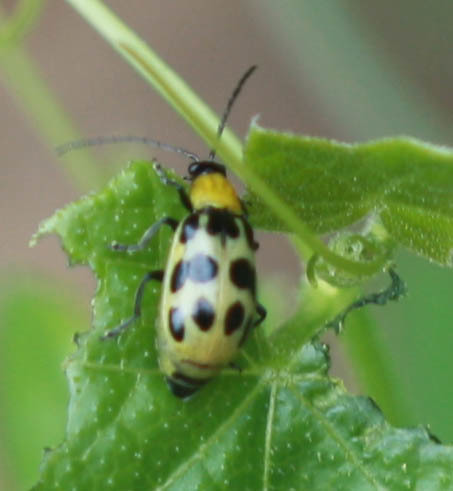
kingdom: Animalia
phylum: Arthropoda
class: Insecta
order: Coleoptera
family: Chrysomelidae
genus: Diabrotica
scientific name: Diabrotica undecimpunctata
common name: Spotted cucumber beetle
